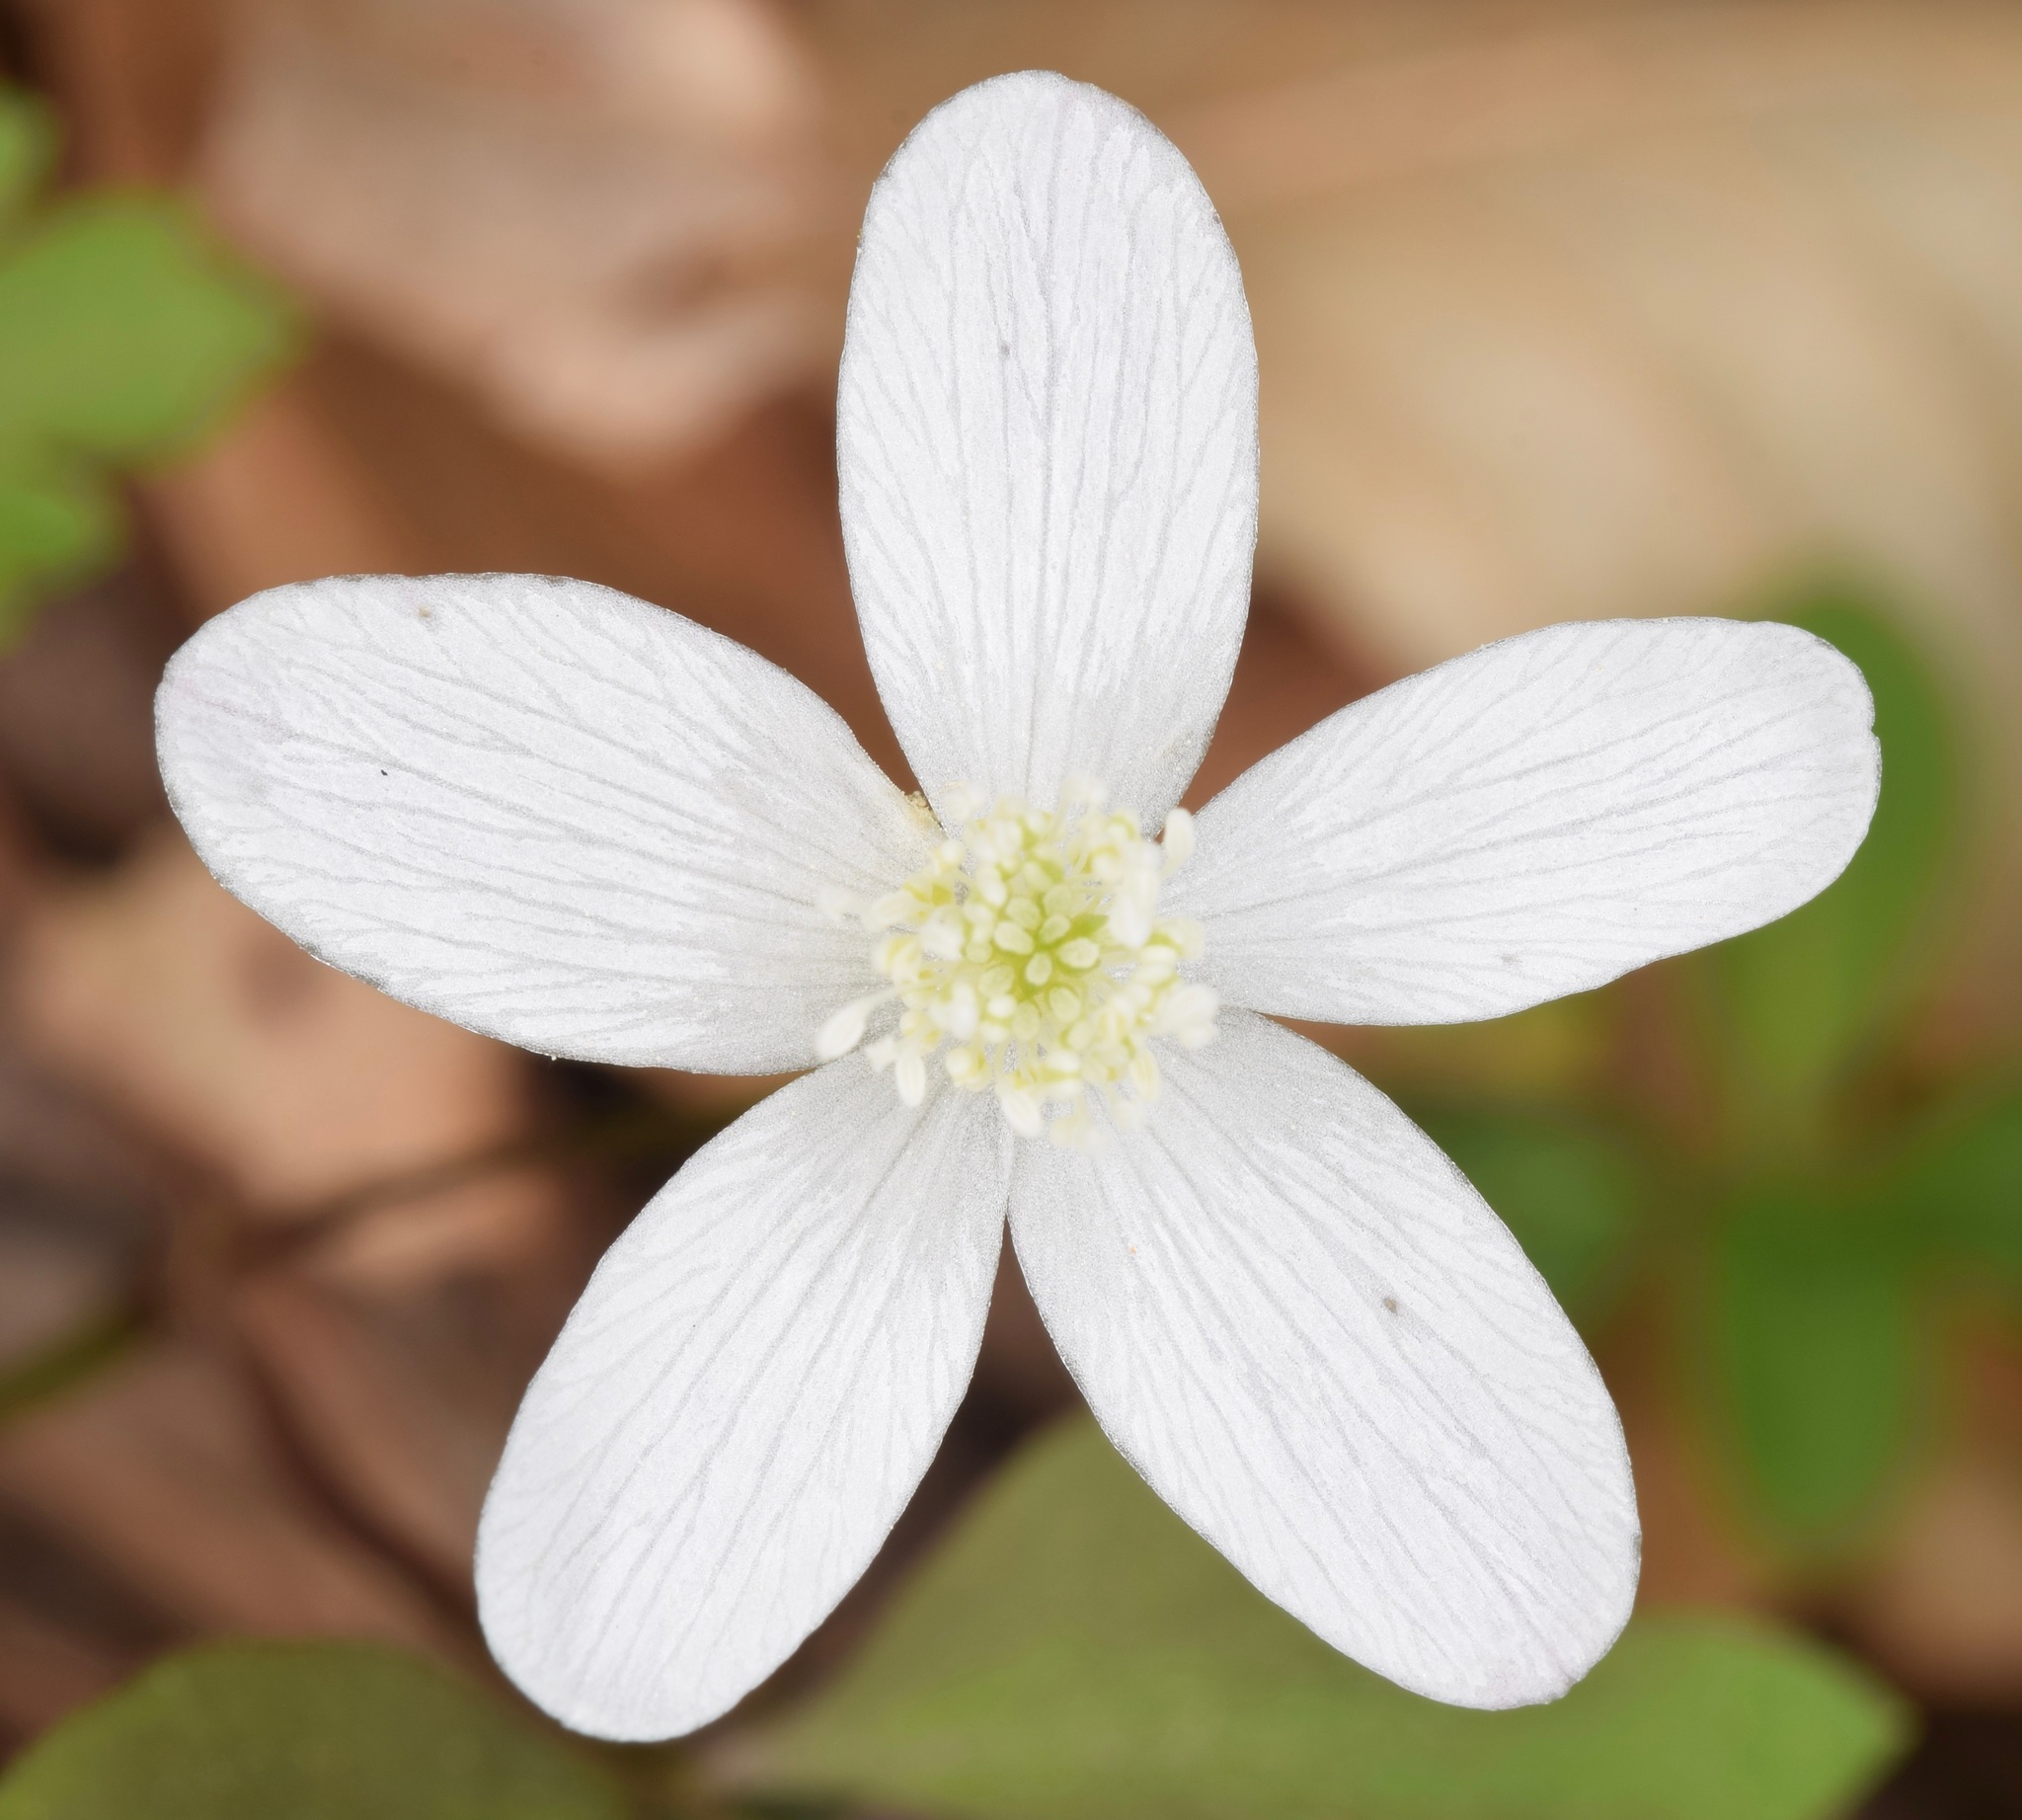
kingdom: Plantae
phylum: Tracheophyta
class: Magnoliopsida
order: Ranunculales
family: Ranunculaceae
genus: Anemone
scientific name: Anemone quinquefolia
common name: Wood anemone
